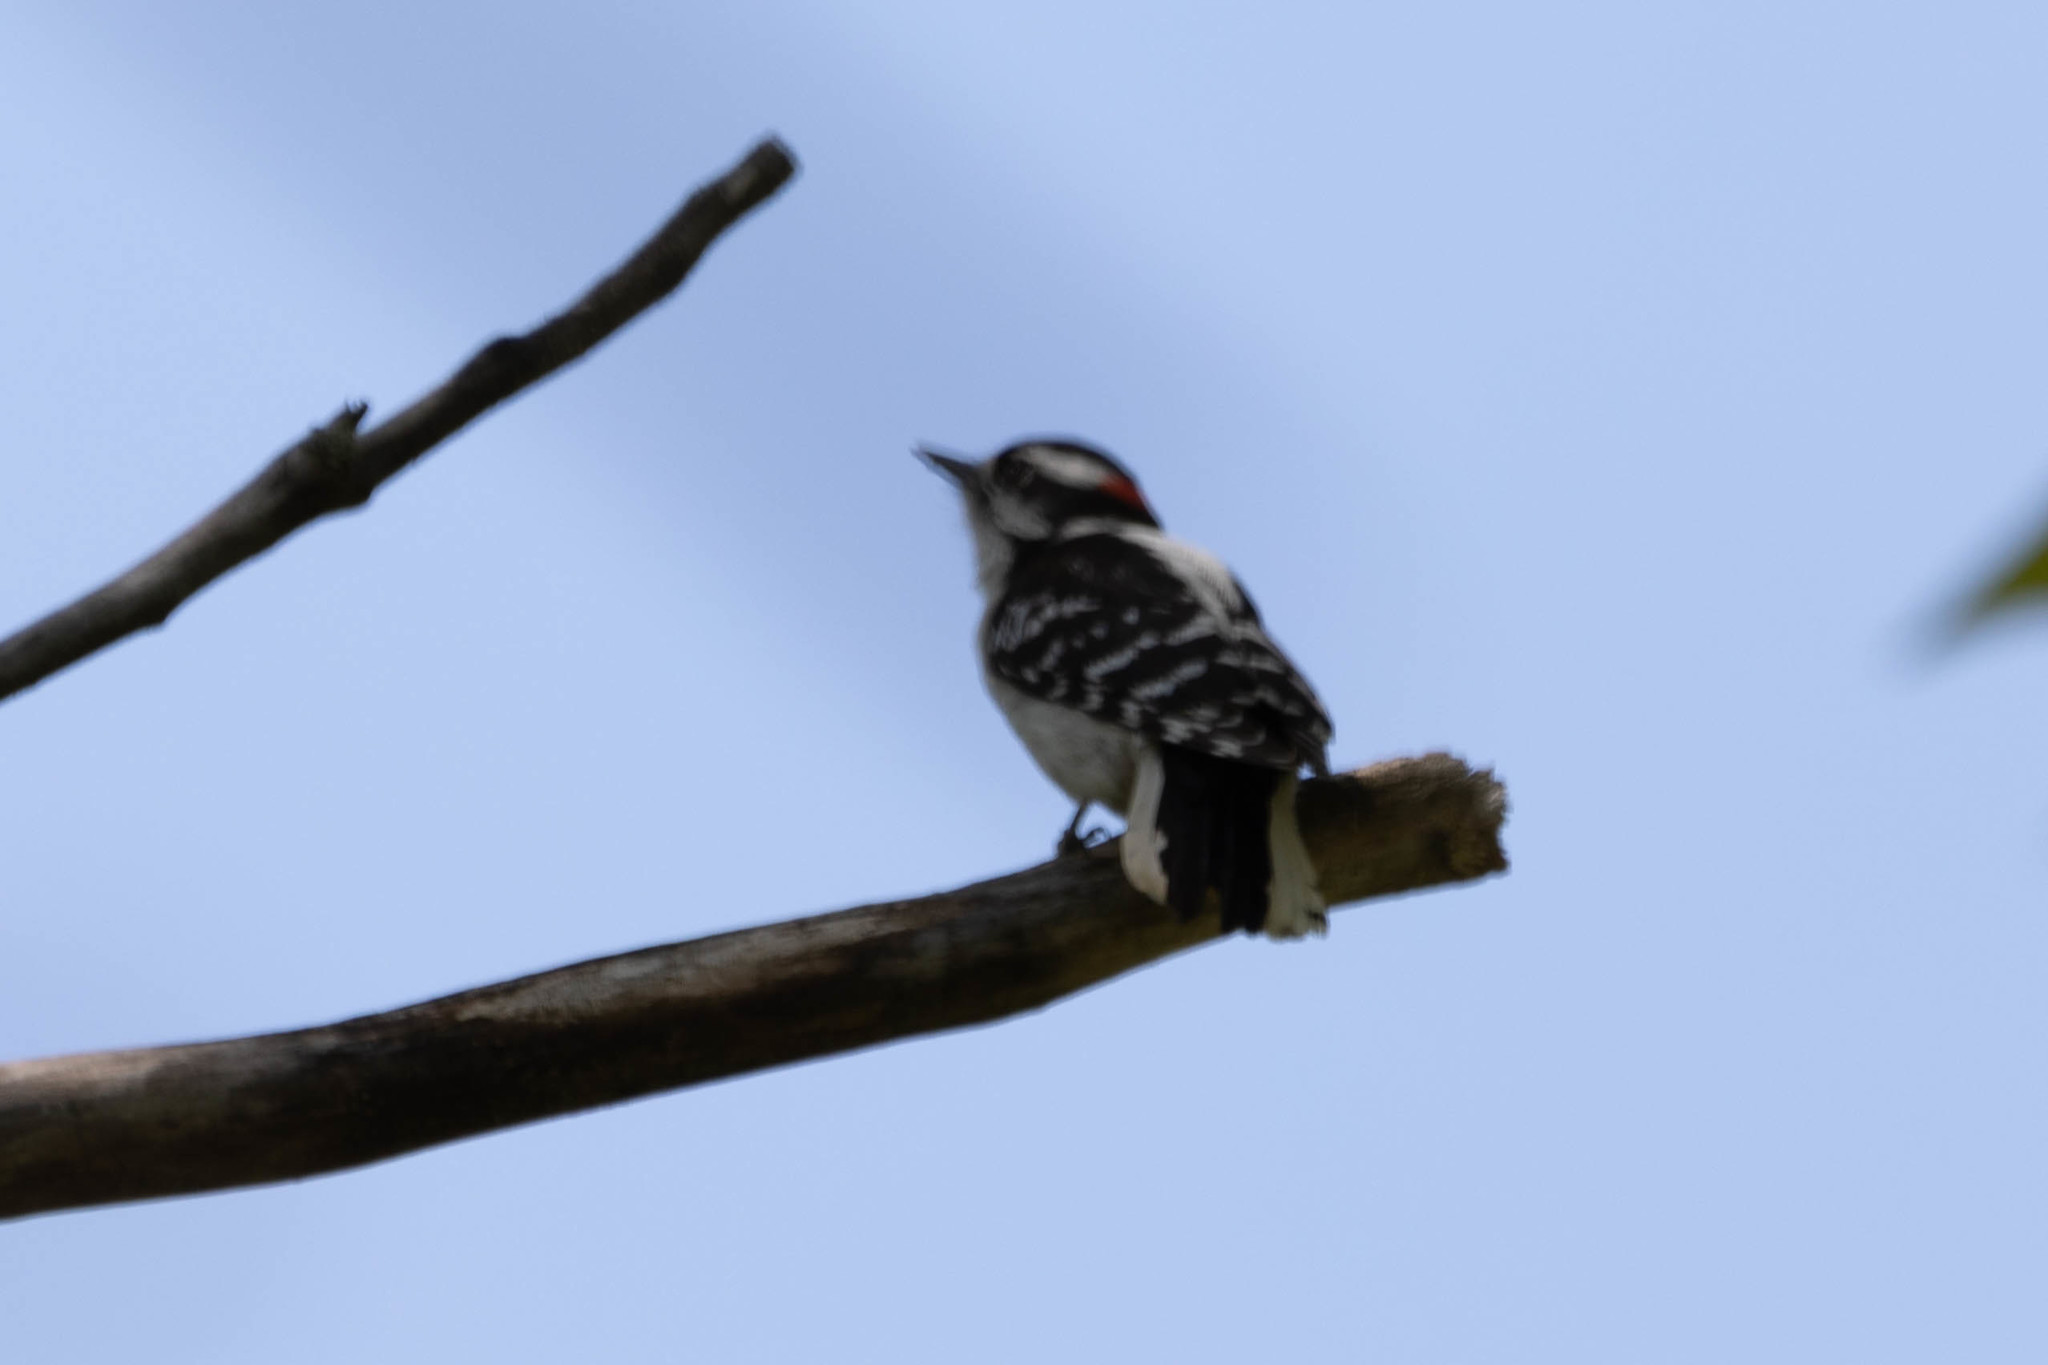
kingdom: Animalia
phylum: Chordata
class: Aves
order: Piciformes
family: Picidae
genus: Dryobates
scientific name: Dryobates pubescens
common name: Downy woodpecker
